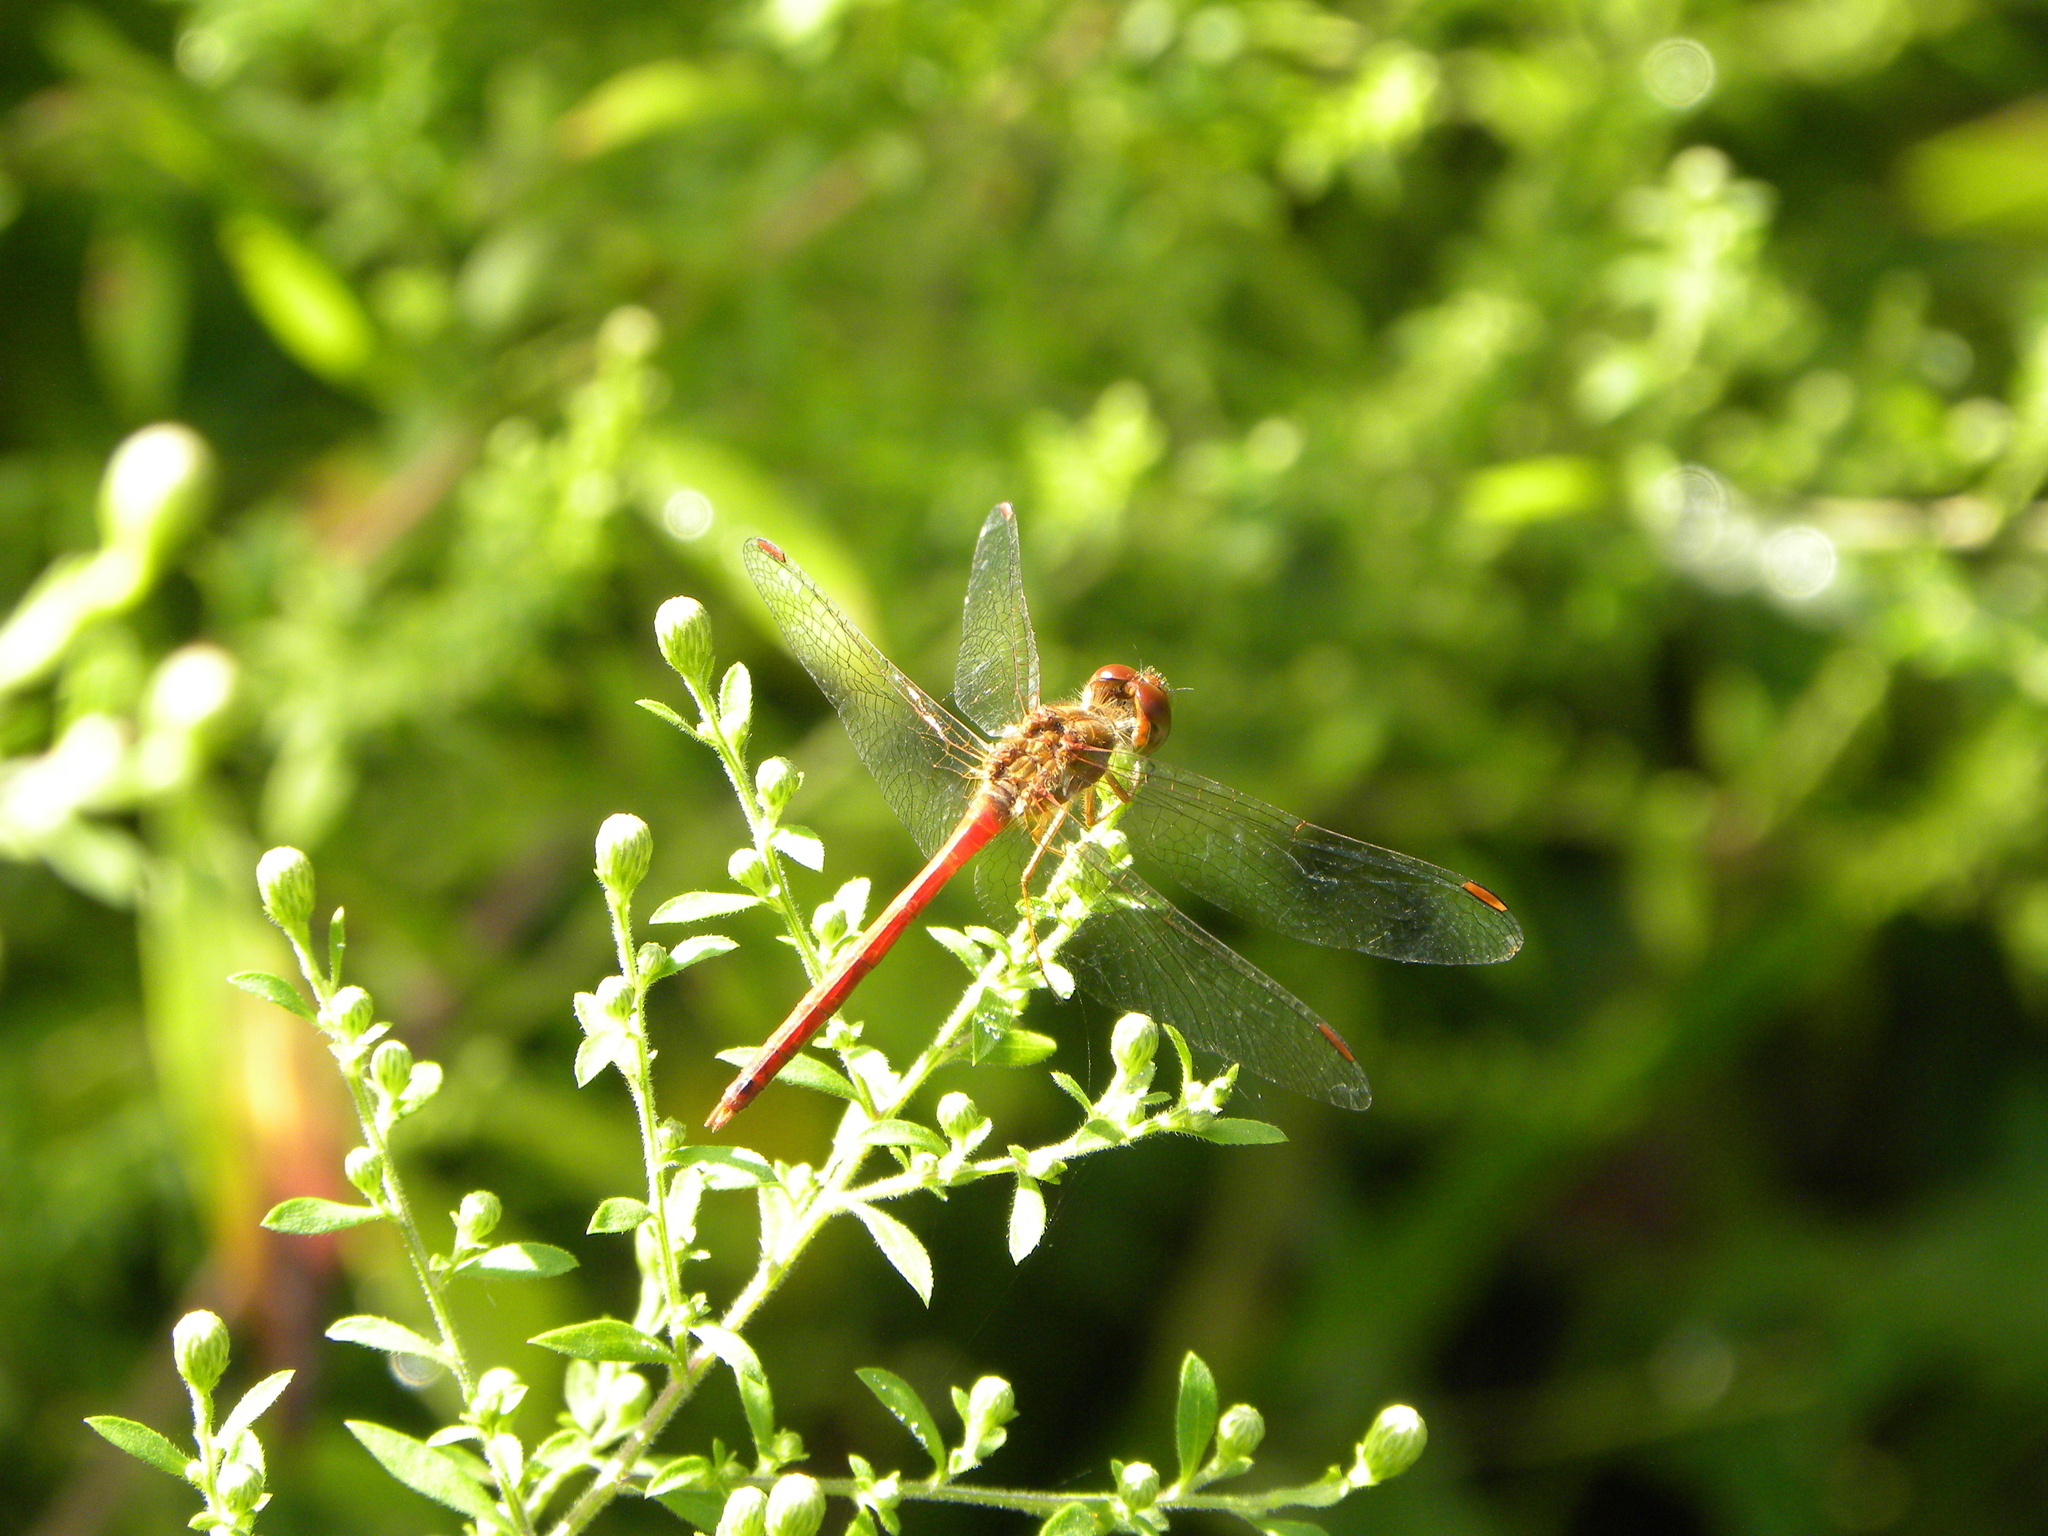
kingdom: Animalia
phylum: Arthropoda
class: Insecta
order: Odonata
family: Libellulidae
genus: Sympetrum
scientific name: Sympetrum vicinum
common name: Autumn meadowhawk
